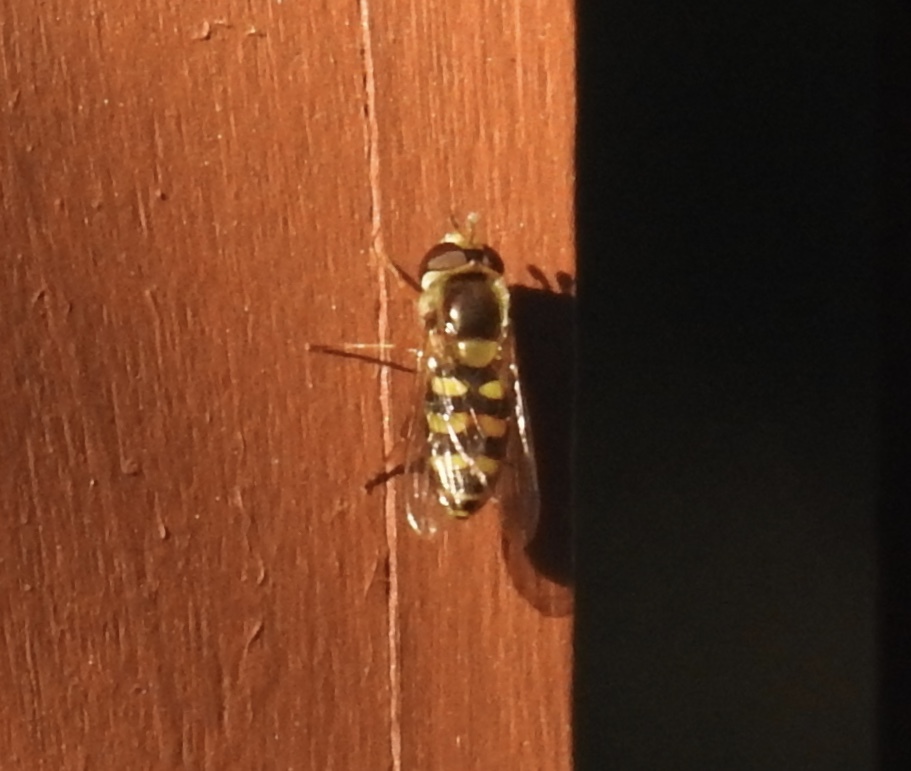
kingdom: Animalia
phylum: Arthropoda
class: Insecta
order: Diptera
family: Syrphidae
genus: Eupeodes
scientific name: Eupeodes fumipennis
